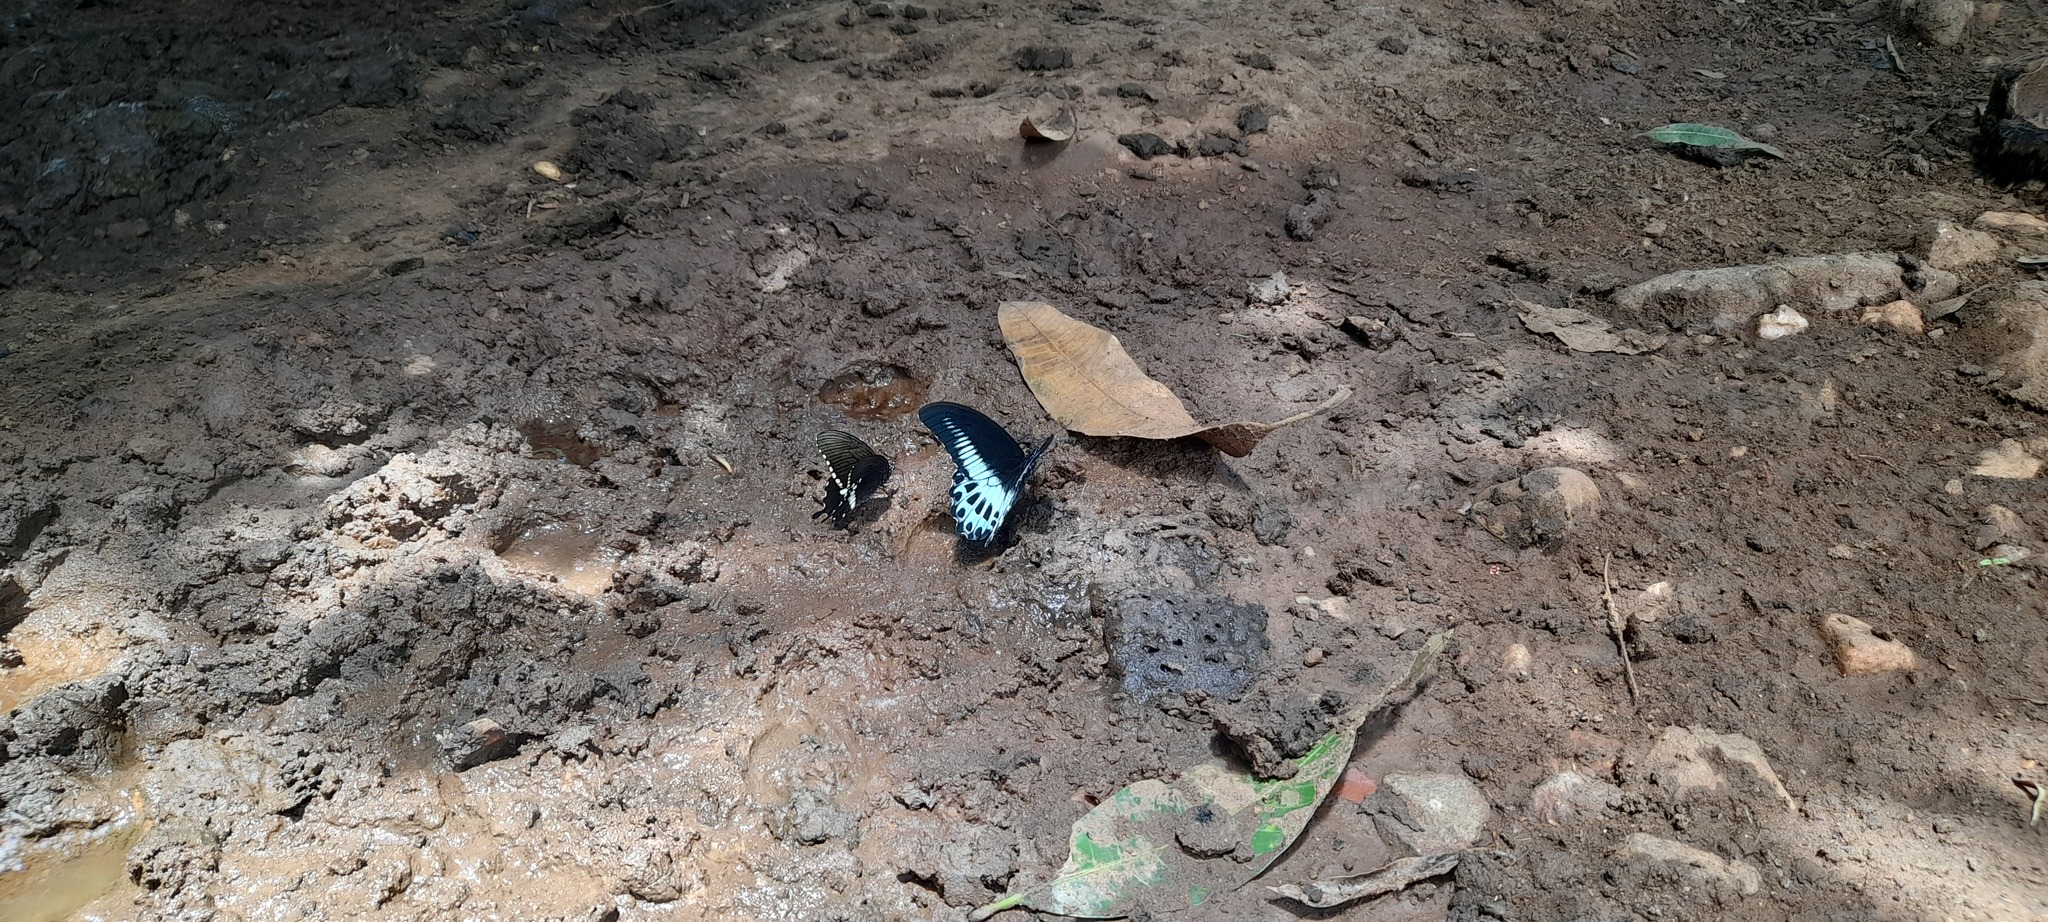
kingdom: Animalia
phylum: Arthropoda
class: Insecta
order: Lepidoptera
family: Papilionidae
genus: Papilio
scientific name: Papilio polytes
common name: Common mormon
